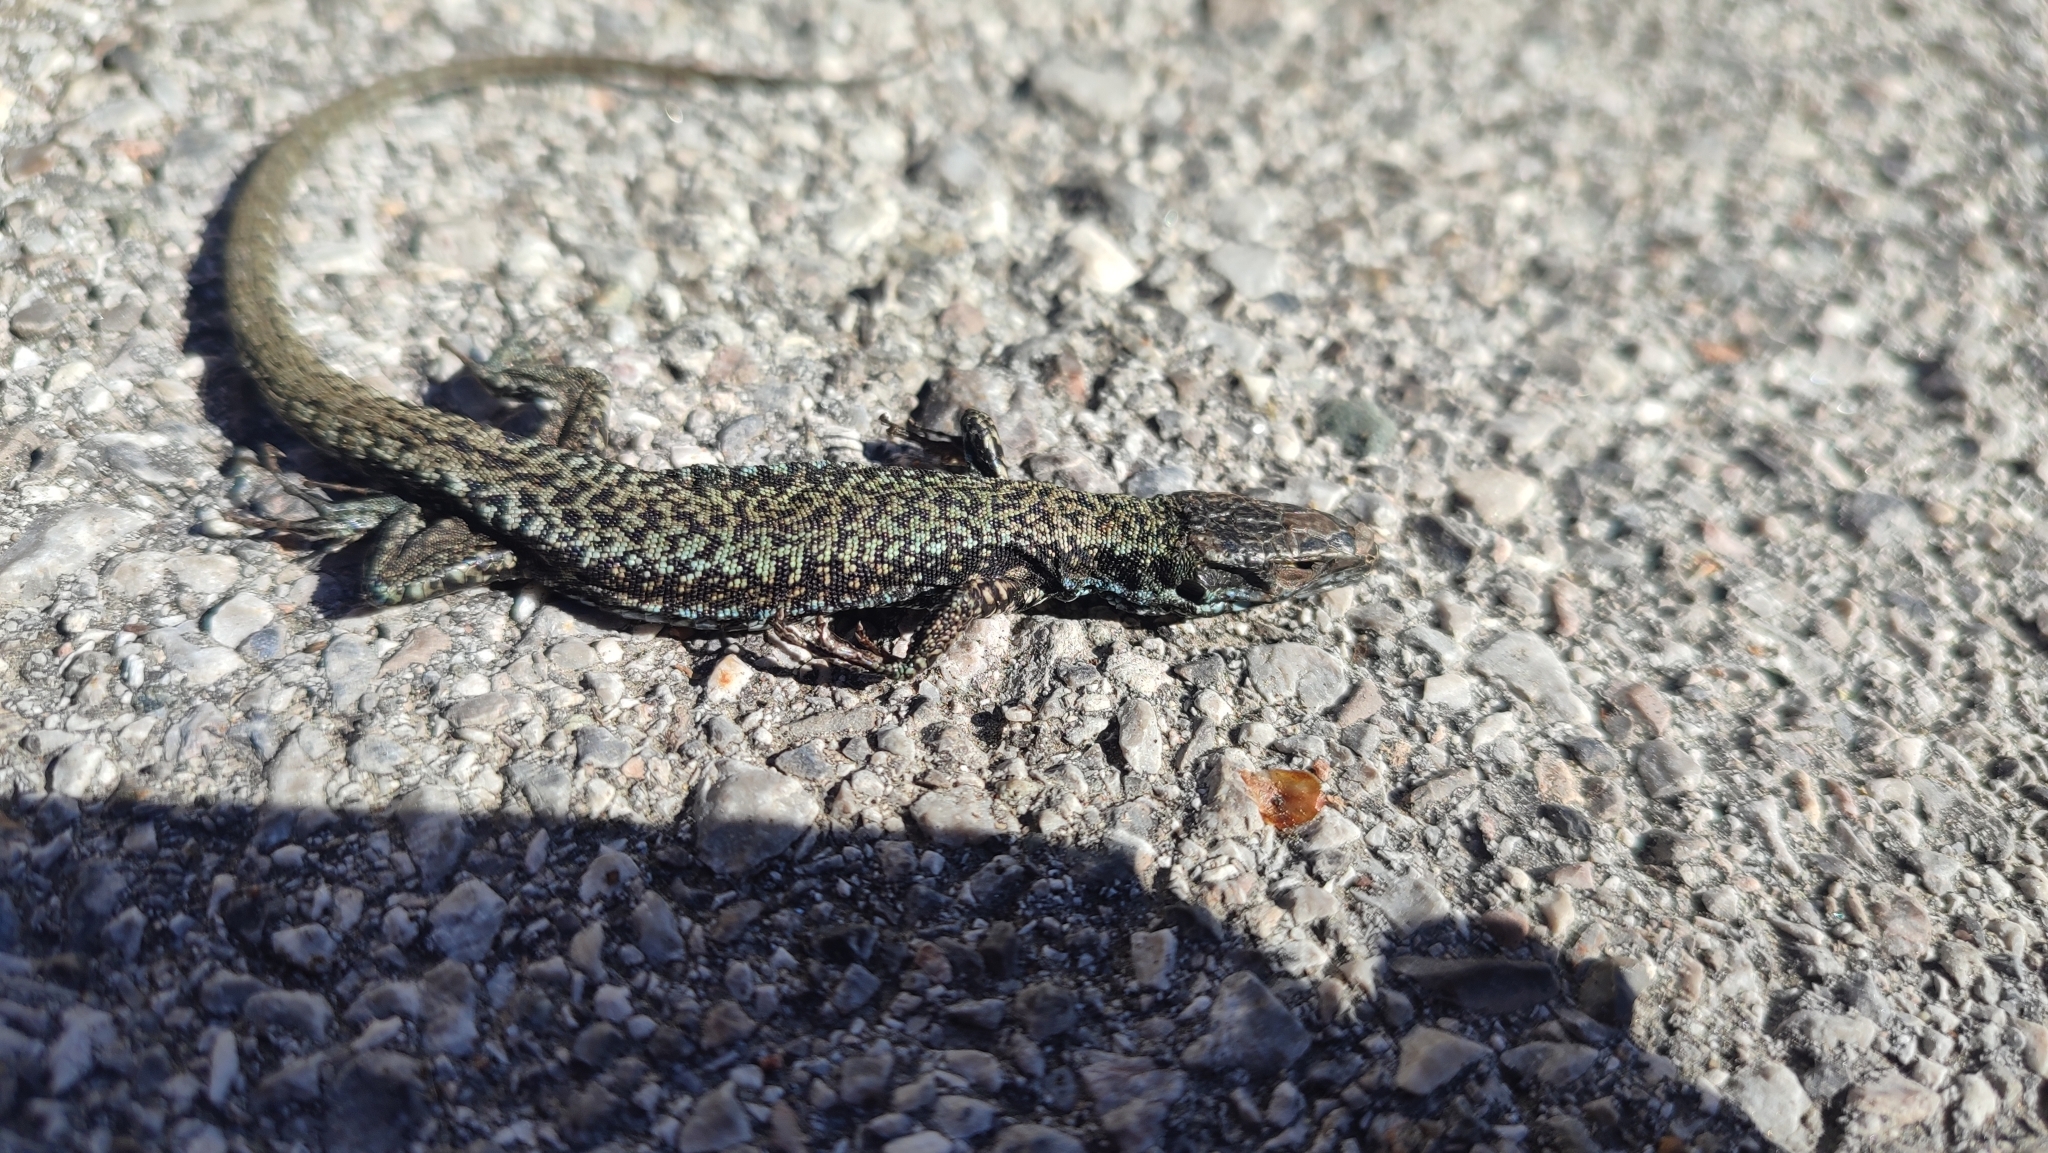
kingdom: Animalia
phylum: Chordata
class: Squamata
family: Lacertidae
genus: Podarcis
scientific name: Podarcis muralis
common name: Common wall lizard
